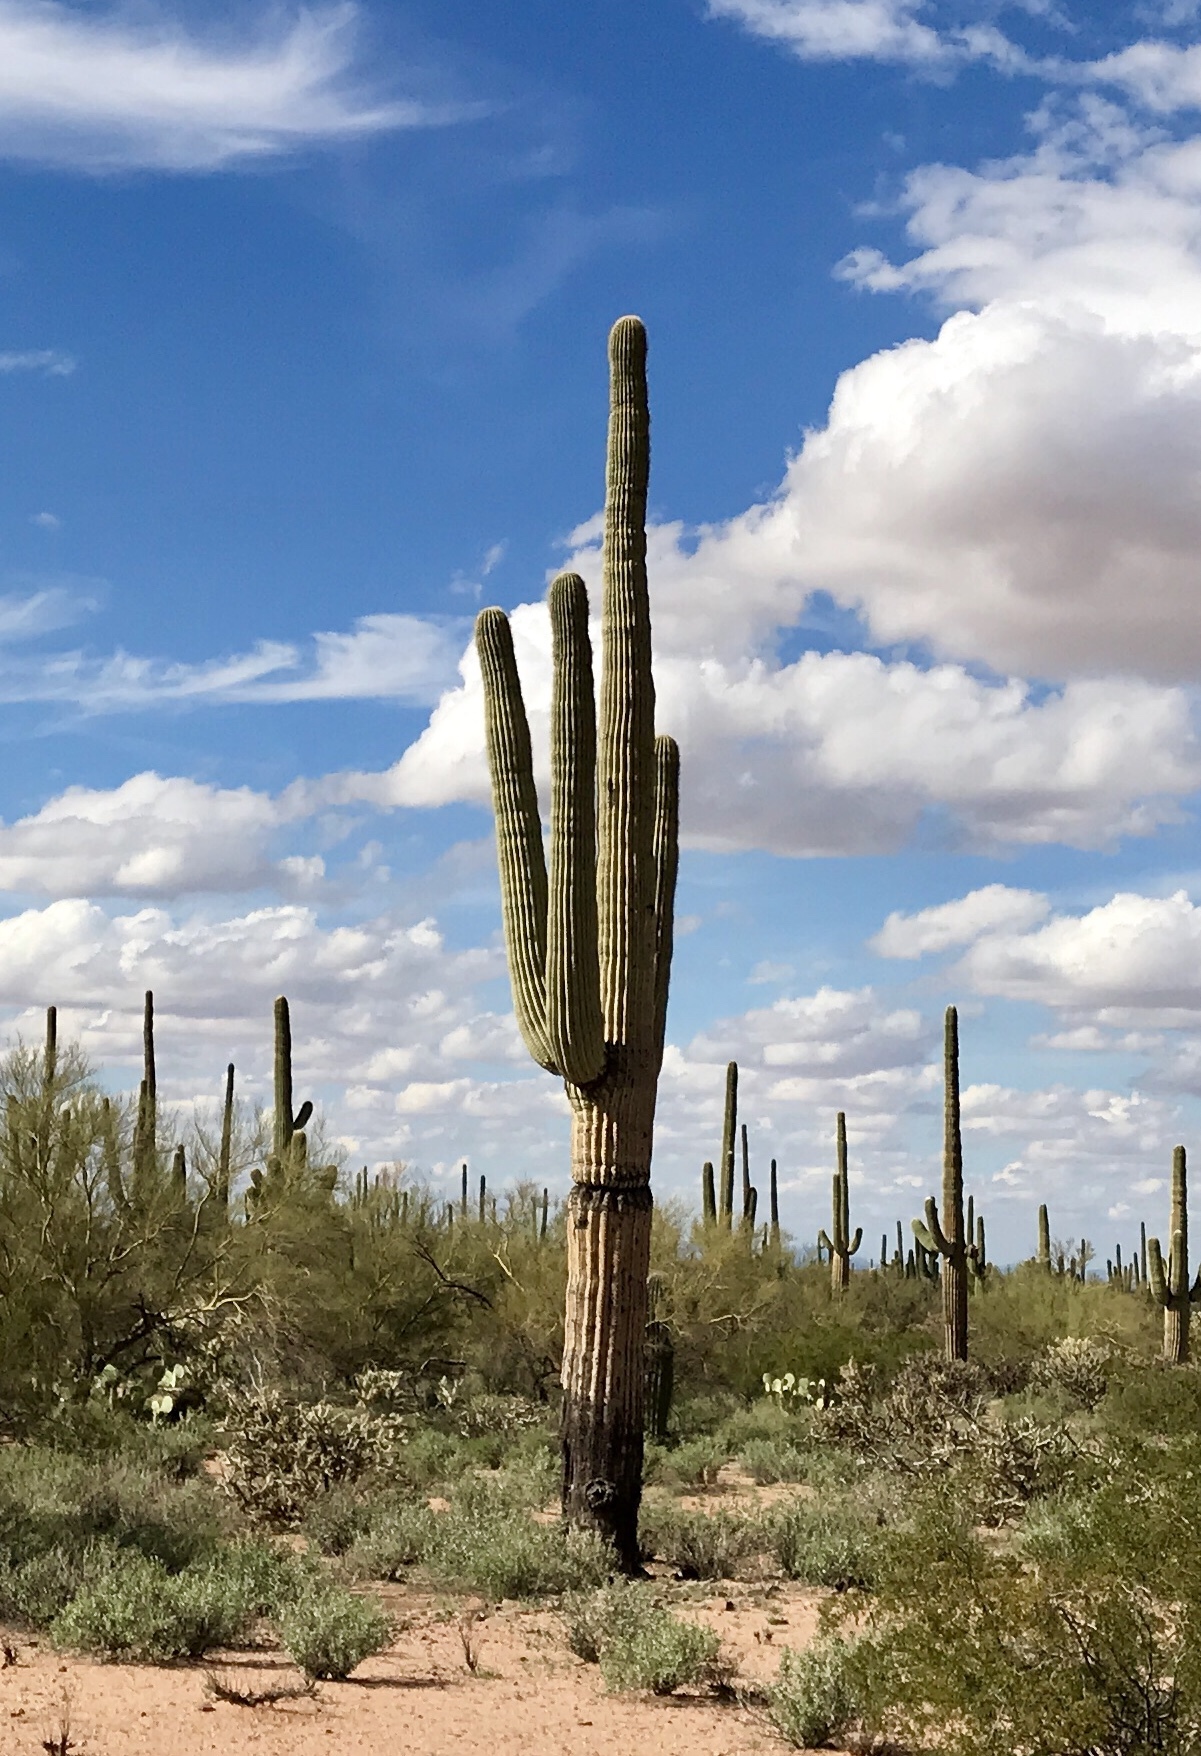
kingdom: Plantae
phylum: Tracheophyta
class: Magnoliopsida
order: Caryophyllales
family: Cactaceae
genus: Carnegiea
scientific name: Carnegiea gigantea
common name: Saguaro
